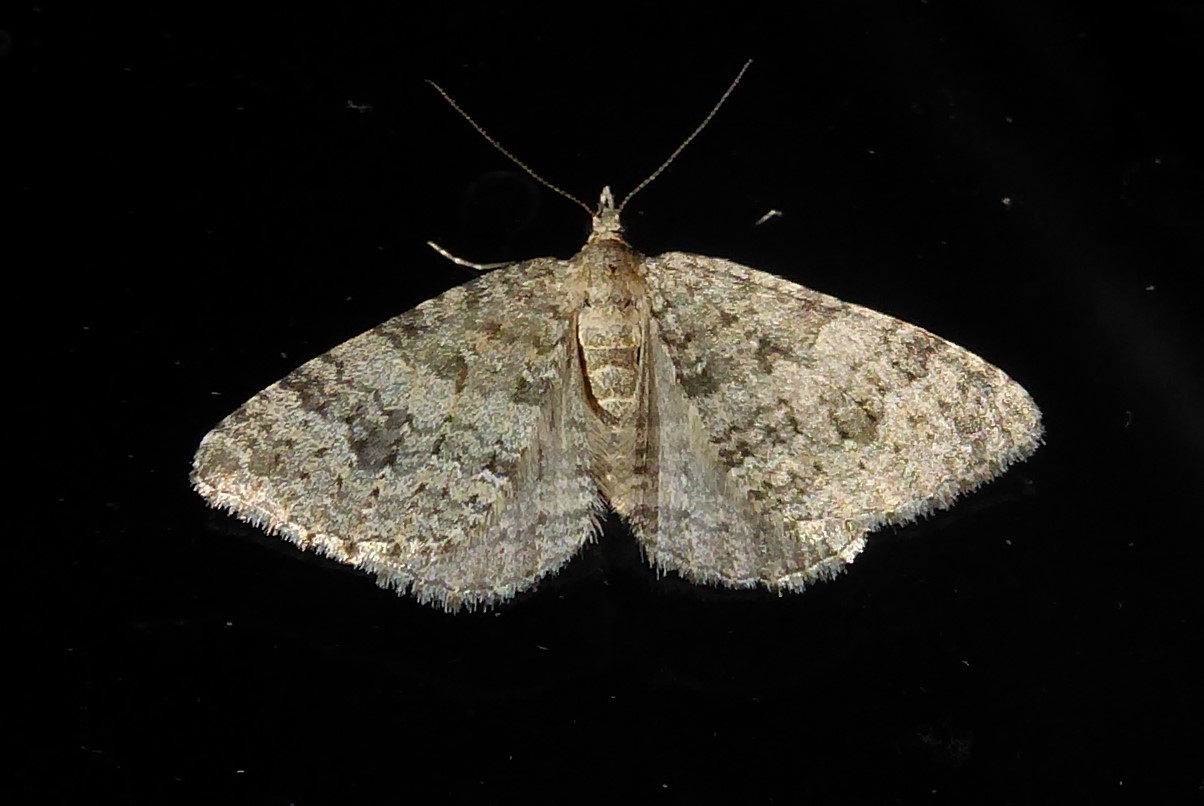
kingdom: Animalia
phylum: Arthropoda
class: Insecta
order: Lepidoptera
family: Geometridae
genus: Helastia
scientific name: Helastia corcularia
